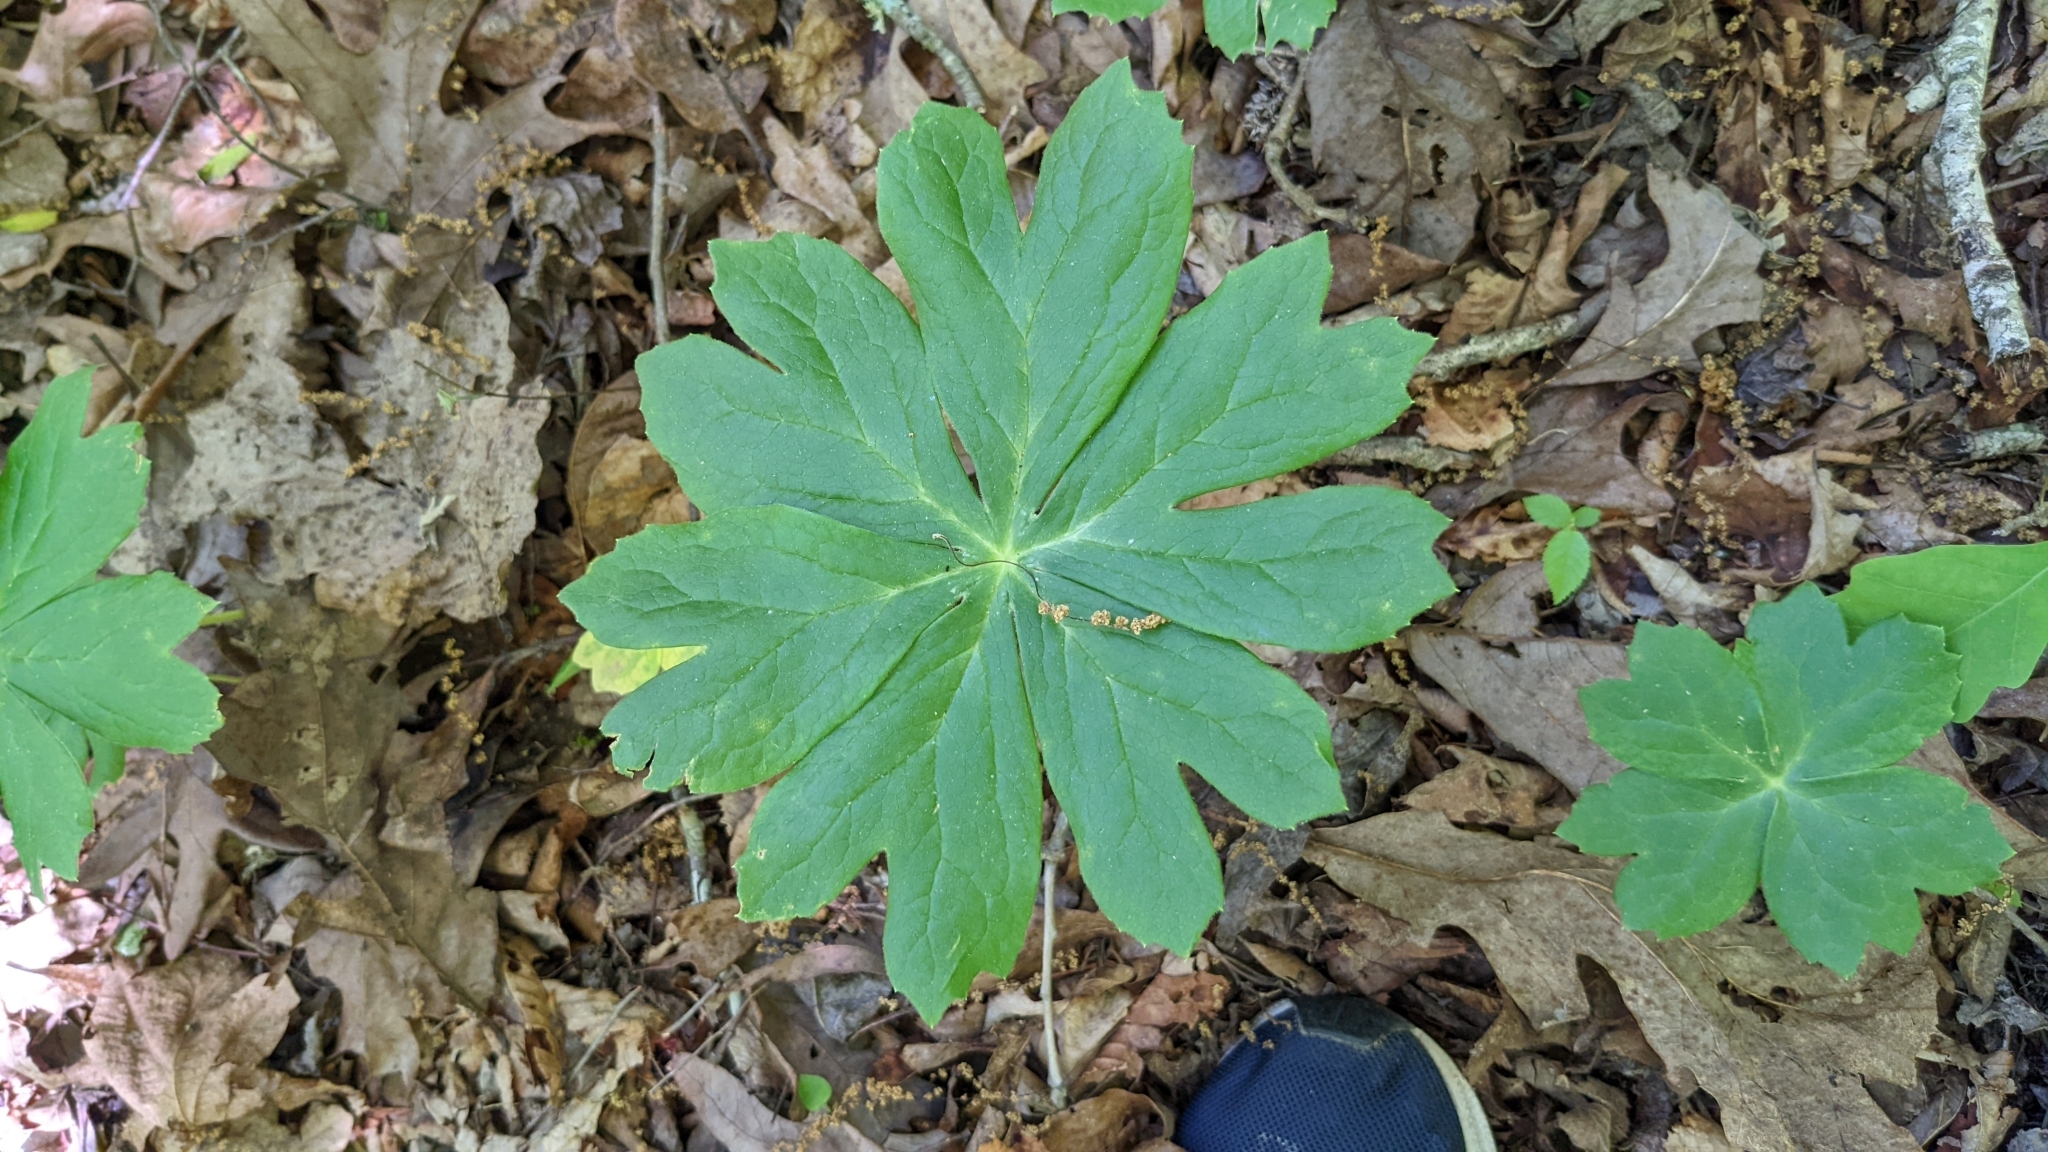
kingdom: Plantae
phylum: Tracheophyta
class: Magnoliopsida
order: Ranunculales
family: Berberidaceae
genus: Podophyllum
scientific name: Podophyllum peltatum
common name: Wild mandrake
